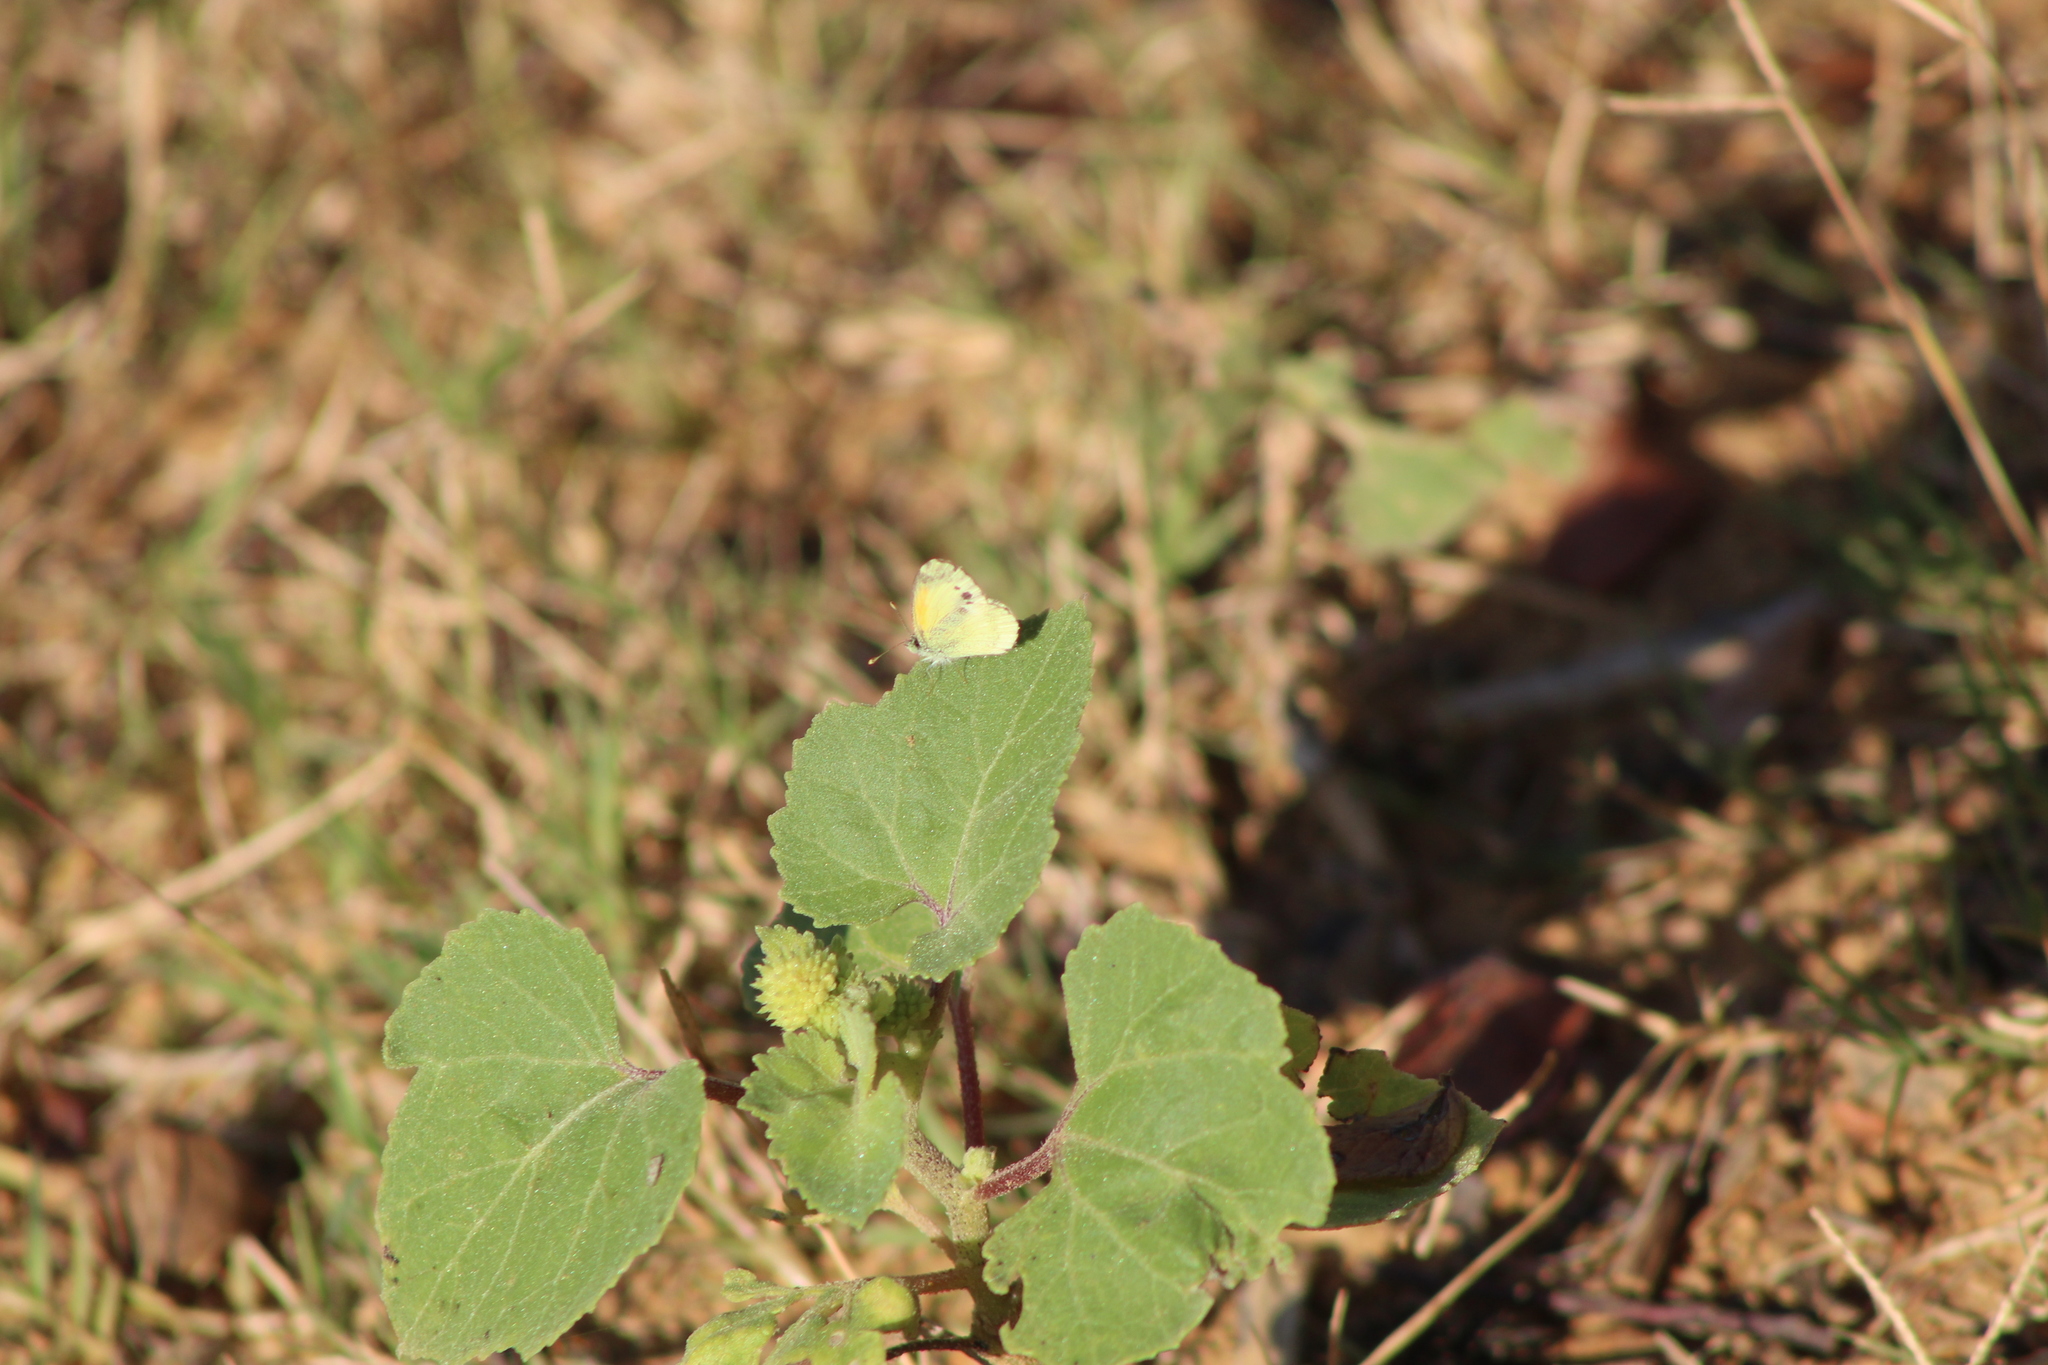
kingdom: Animalia
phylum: Arthropoda
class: Insecta
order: Lepidoptera
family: Pieridae
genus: Nathalis
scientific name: Nathalis iole
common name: Dainty sulphur
